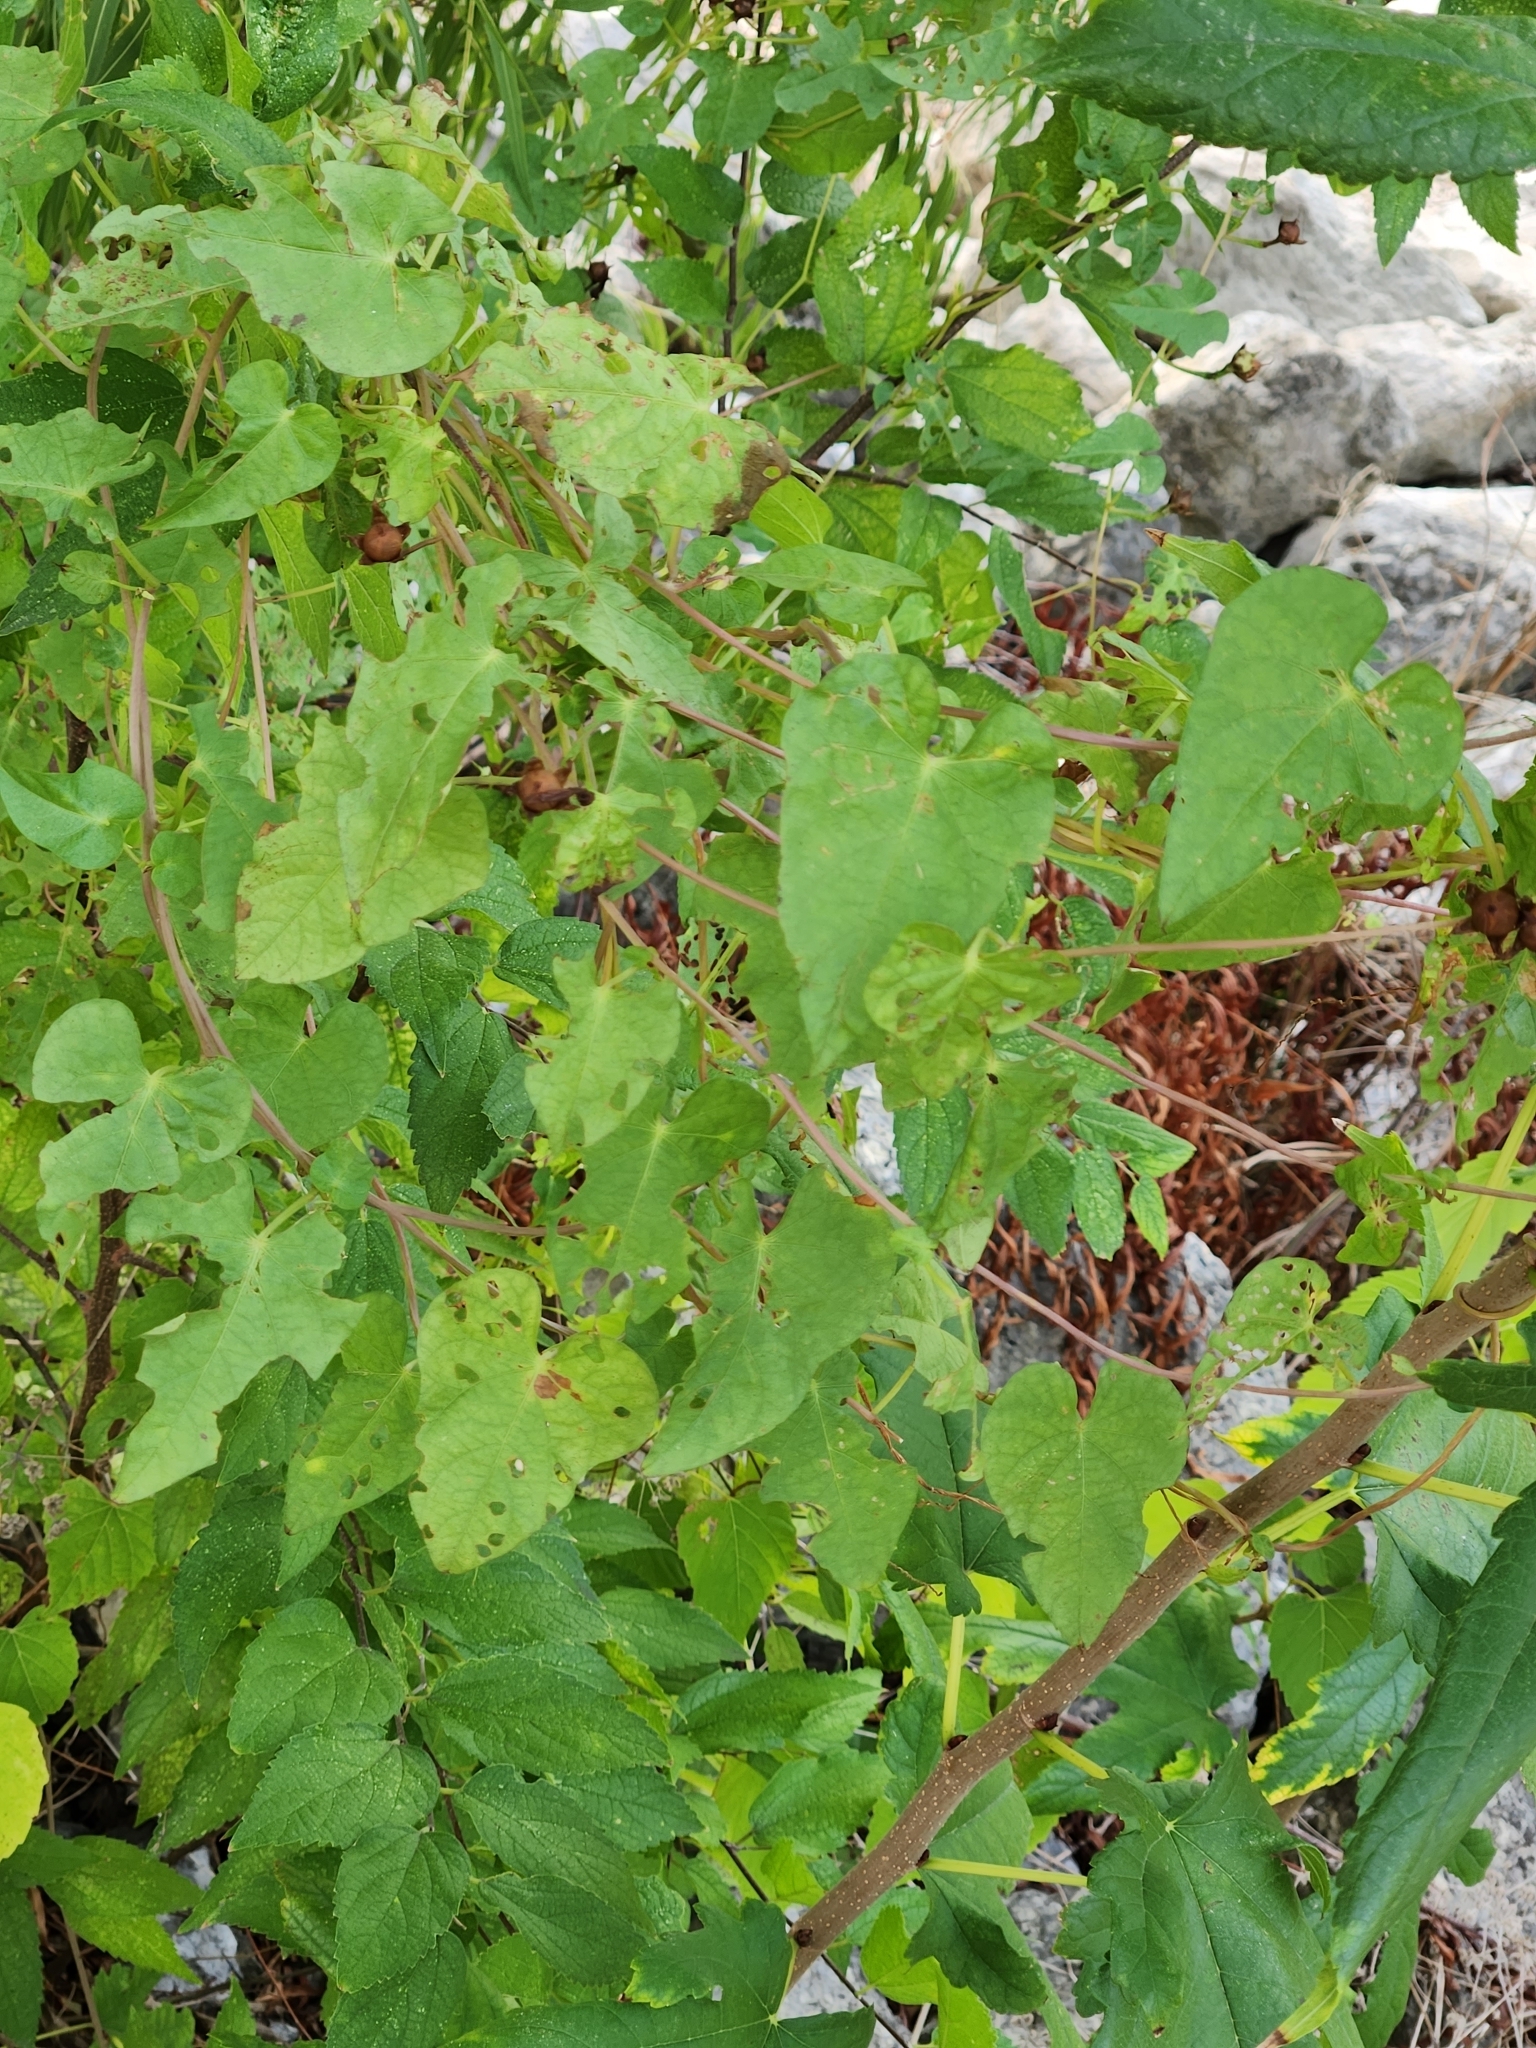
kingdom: Plantae
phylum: Tracheophyta
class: Magnoliopsida
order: Solanales
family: Convolvulaceae
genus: Ipomoea
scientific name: Ipomoea cordatotriloba
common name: Cotton morning glory
